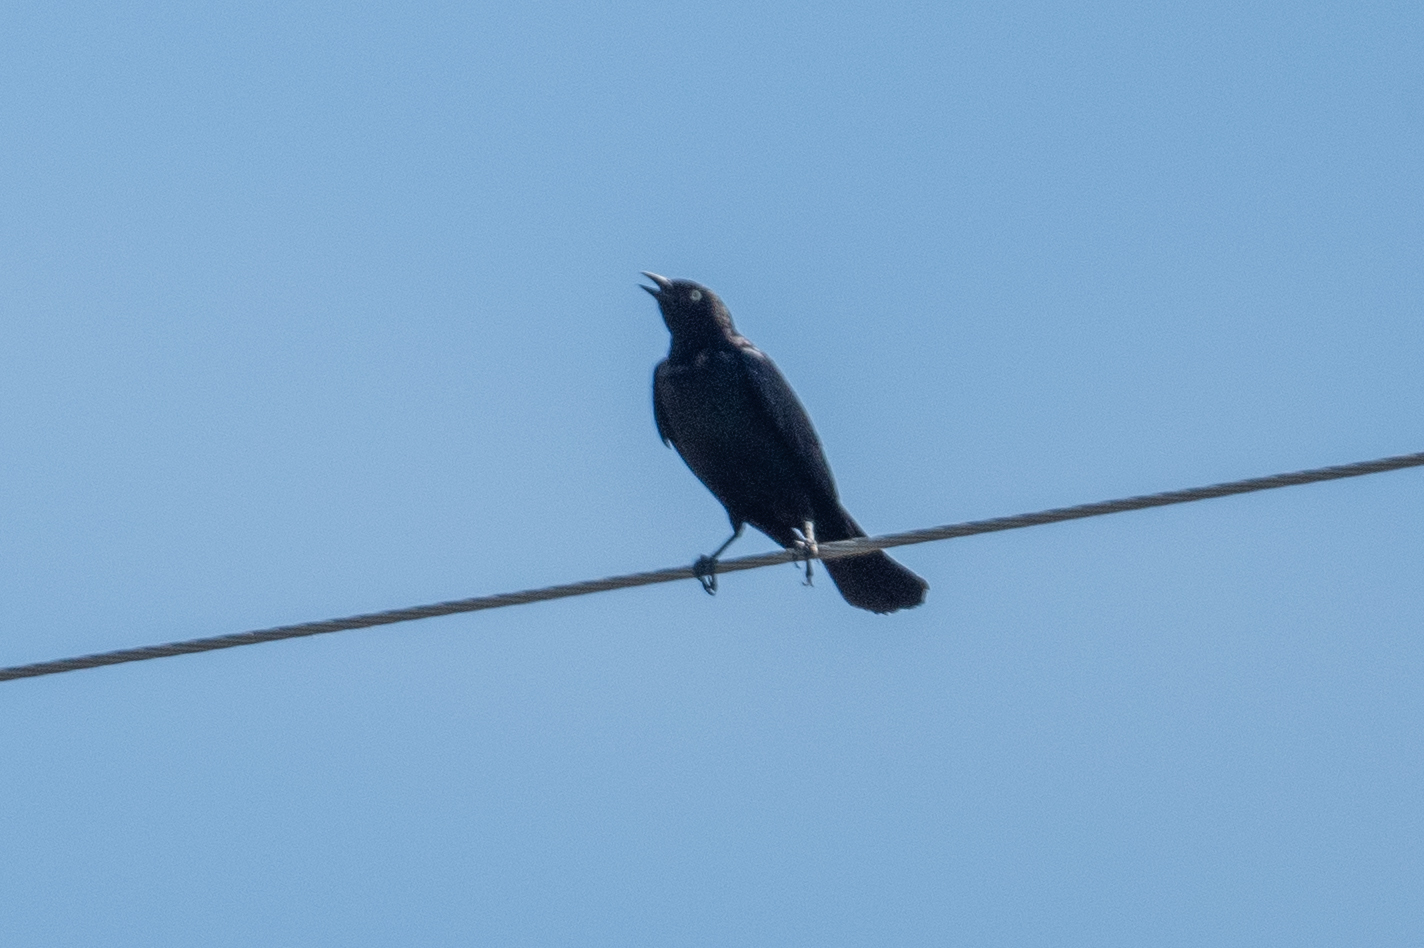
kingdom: Animalia
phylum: Chordata
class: Aves
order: Passeriformes
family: Icteridae
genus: Euphagus
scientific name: Euphagus cyanocephalus
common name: Brewer's blackbird
